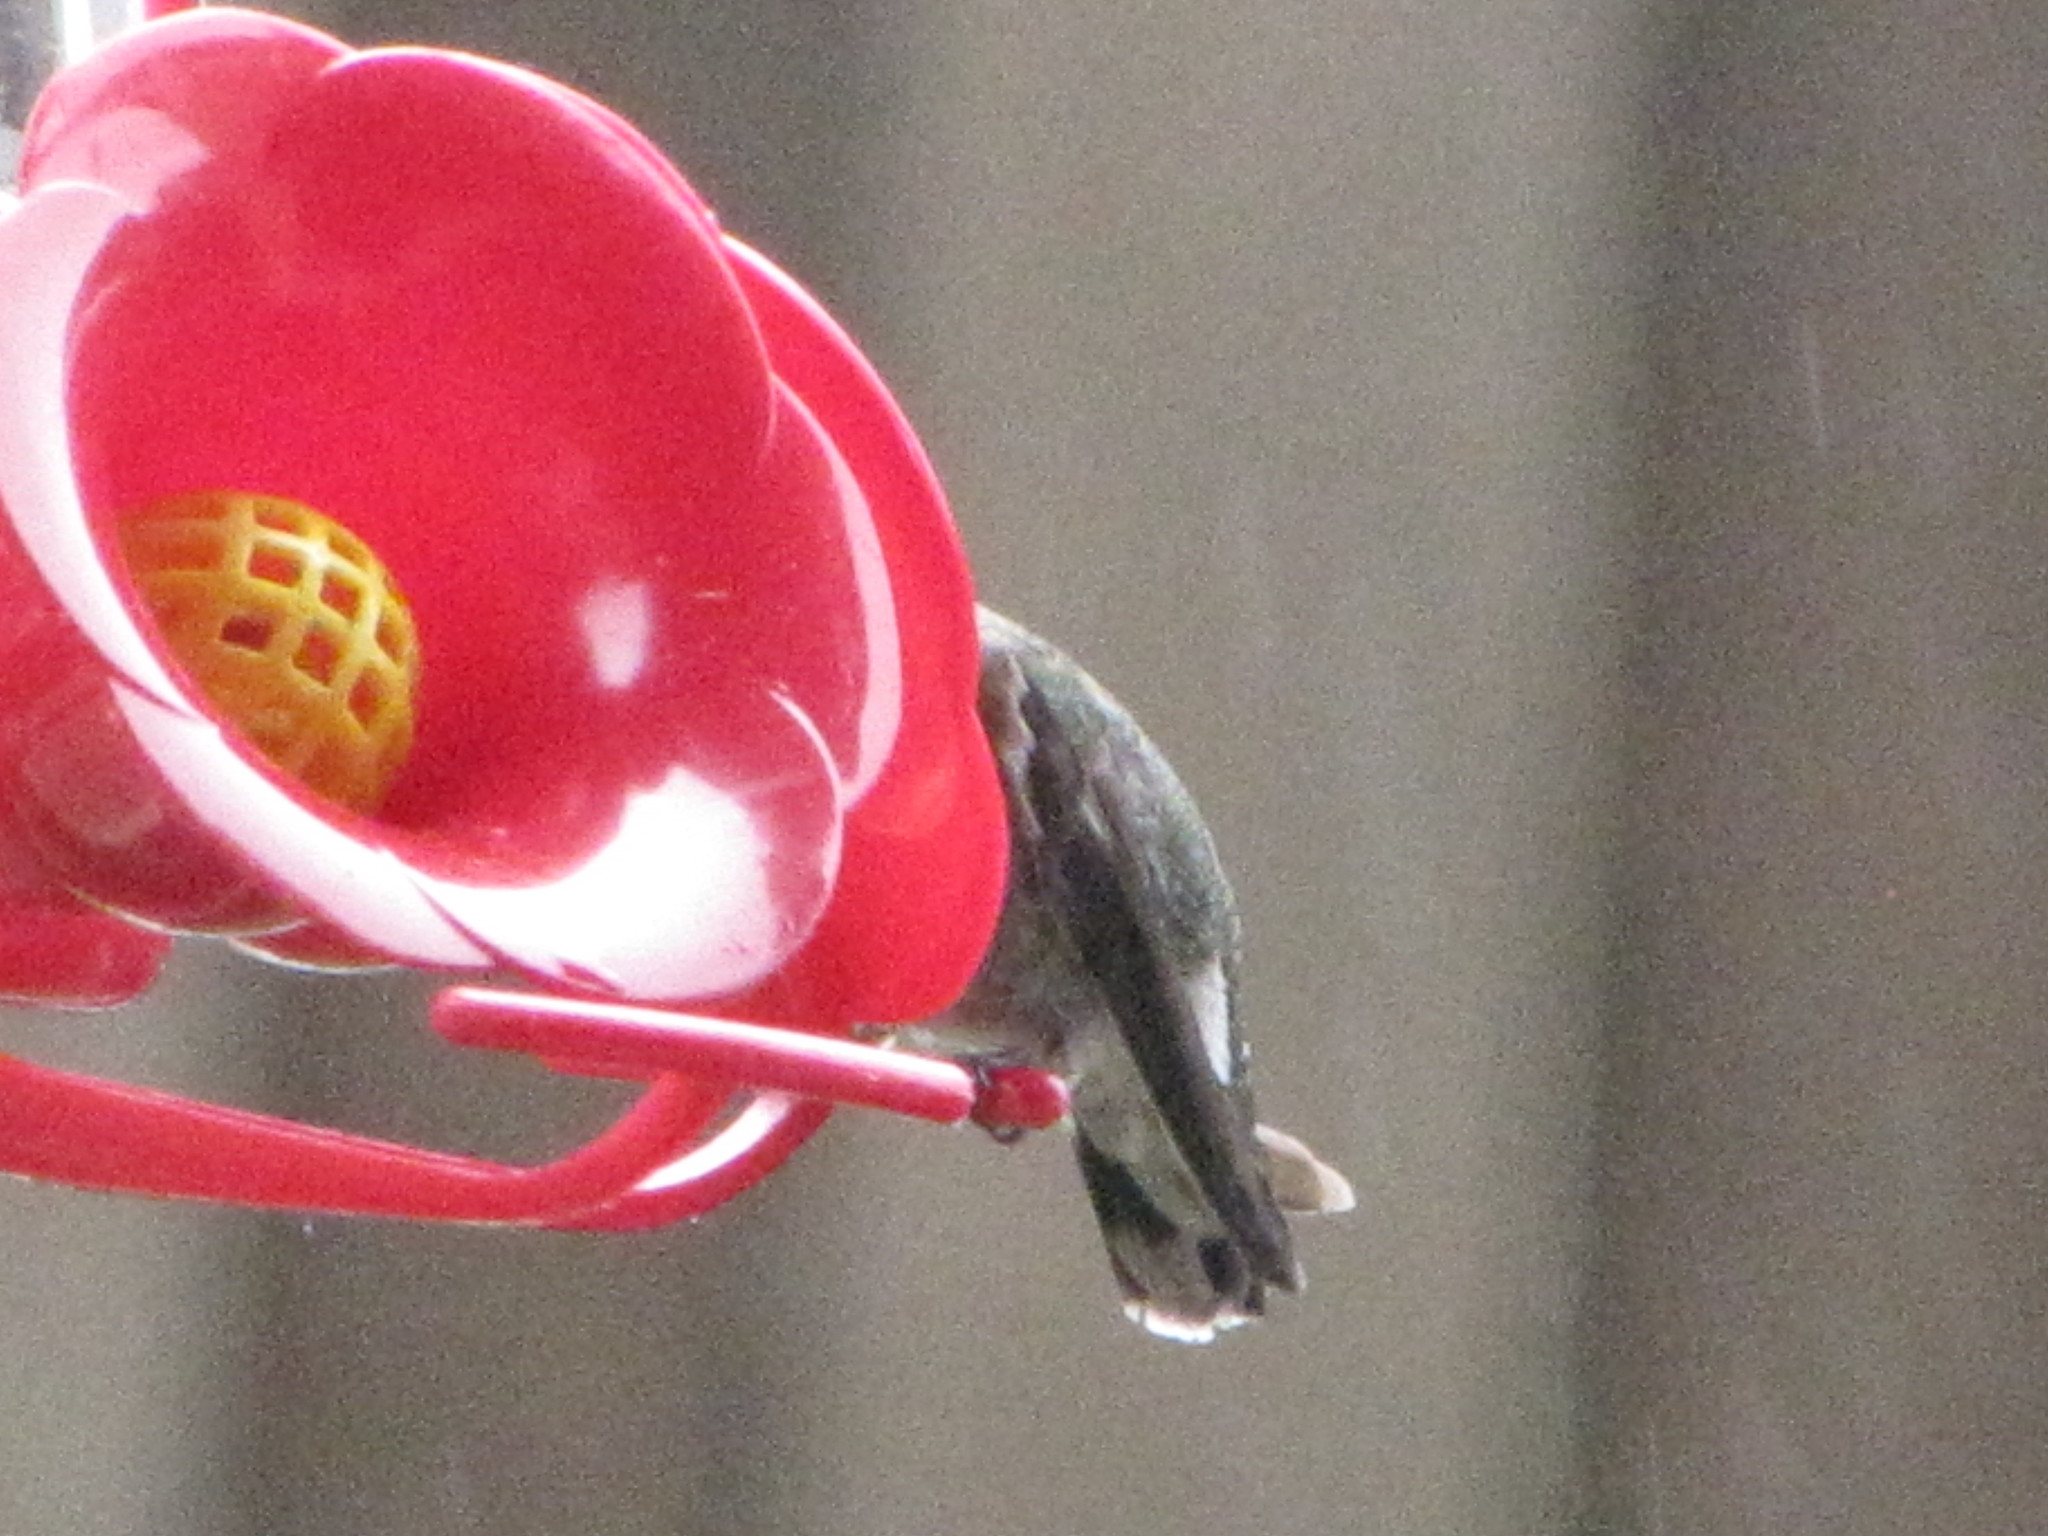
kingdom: Animalia
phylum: Chordata
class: Aves
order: Apodiformes
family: Trochilidae
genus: Calypte
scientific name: Calypte anna
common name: Anna's hummingbird
